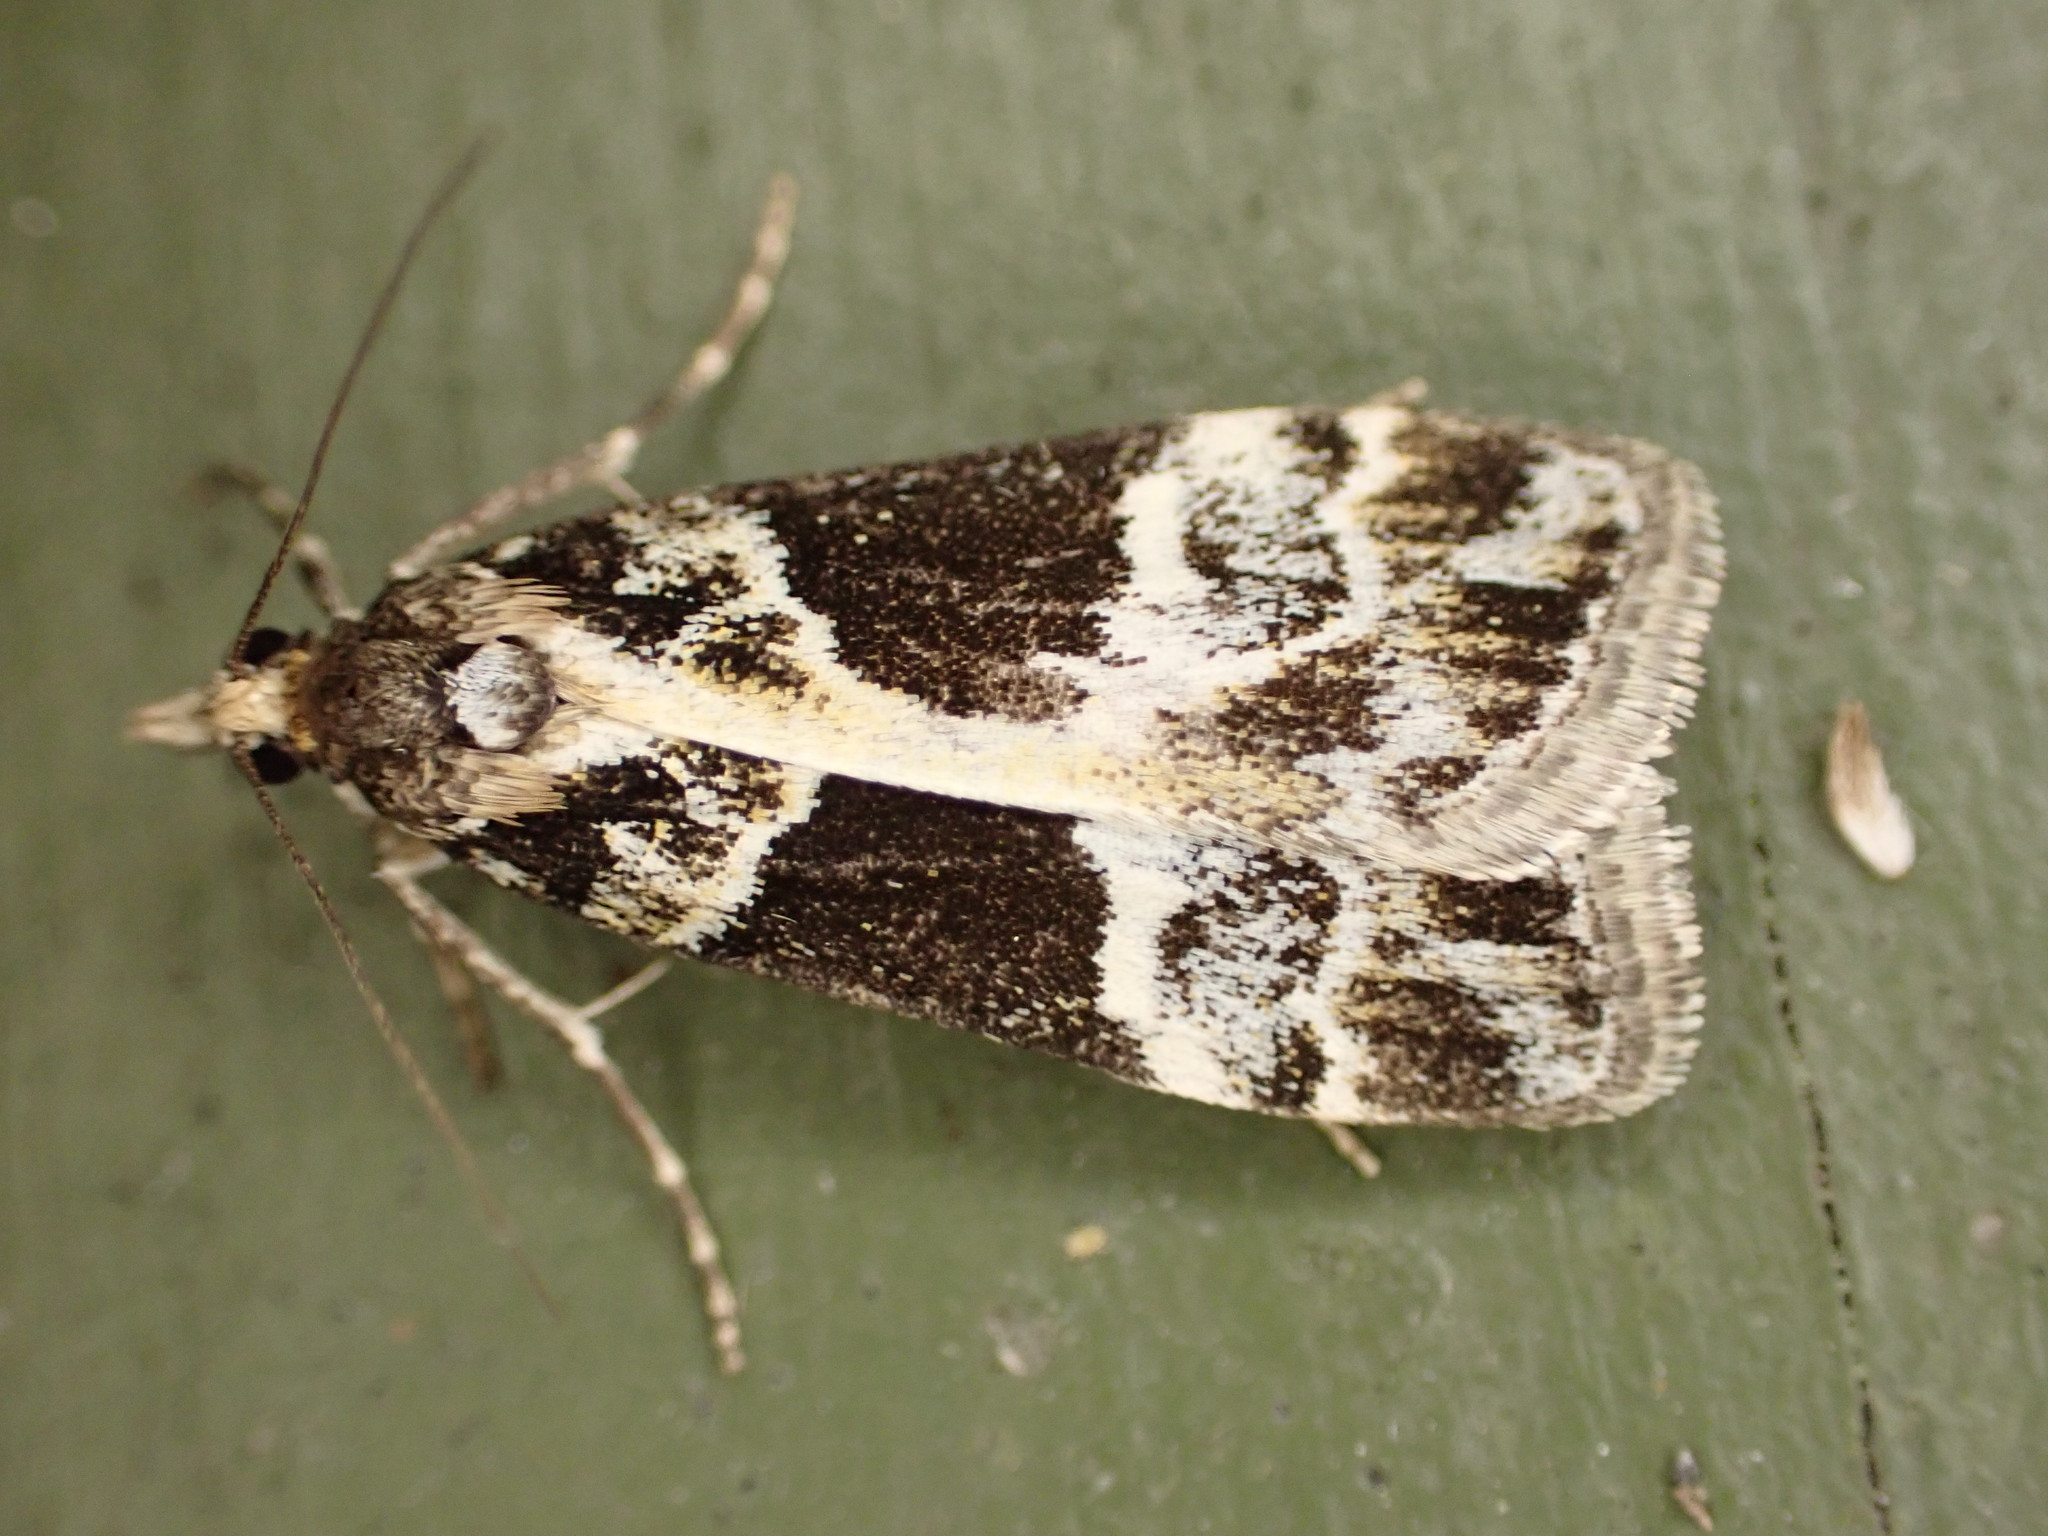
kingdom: Animalia
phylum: Arthropoda
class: Insecta
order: Lepidoptera
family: Crambidae
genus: Eudonia
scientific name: Eudonia melanaegis
